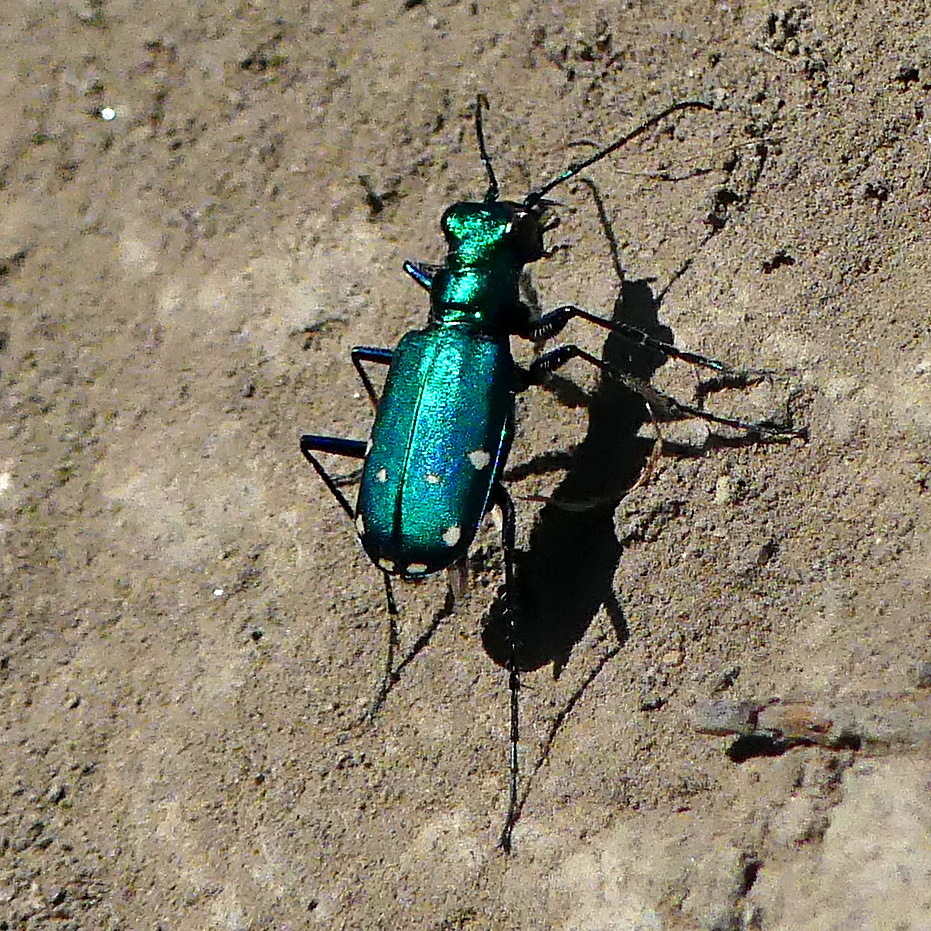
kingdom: Animalia
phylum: Arthropoda
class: Insecta
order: Coleoptera
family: Carabidae
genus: Cicindela
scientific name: Cicindela sexguttata
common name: Six-spotted tiger beetle
